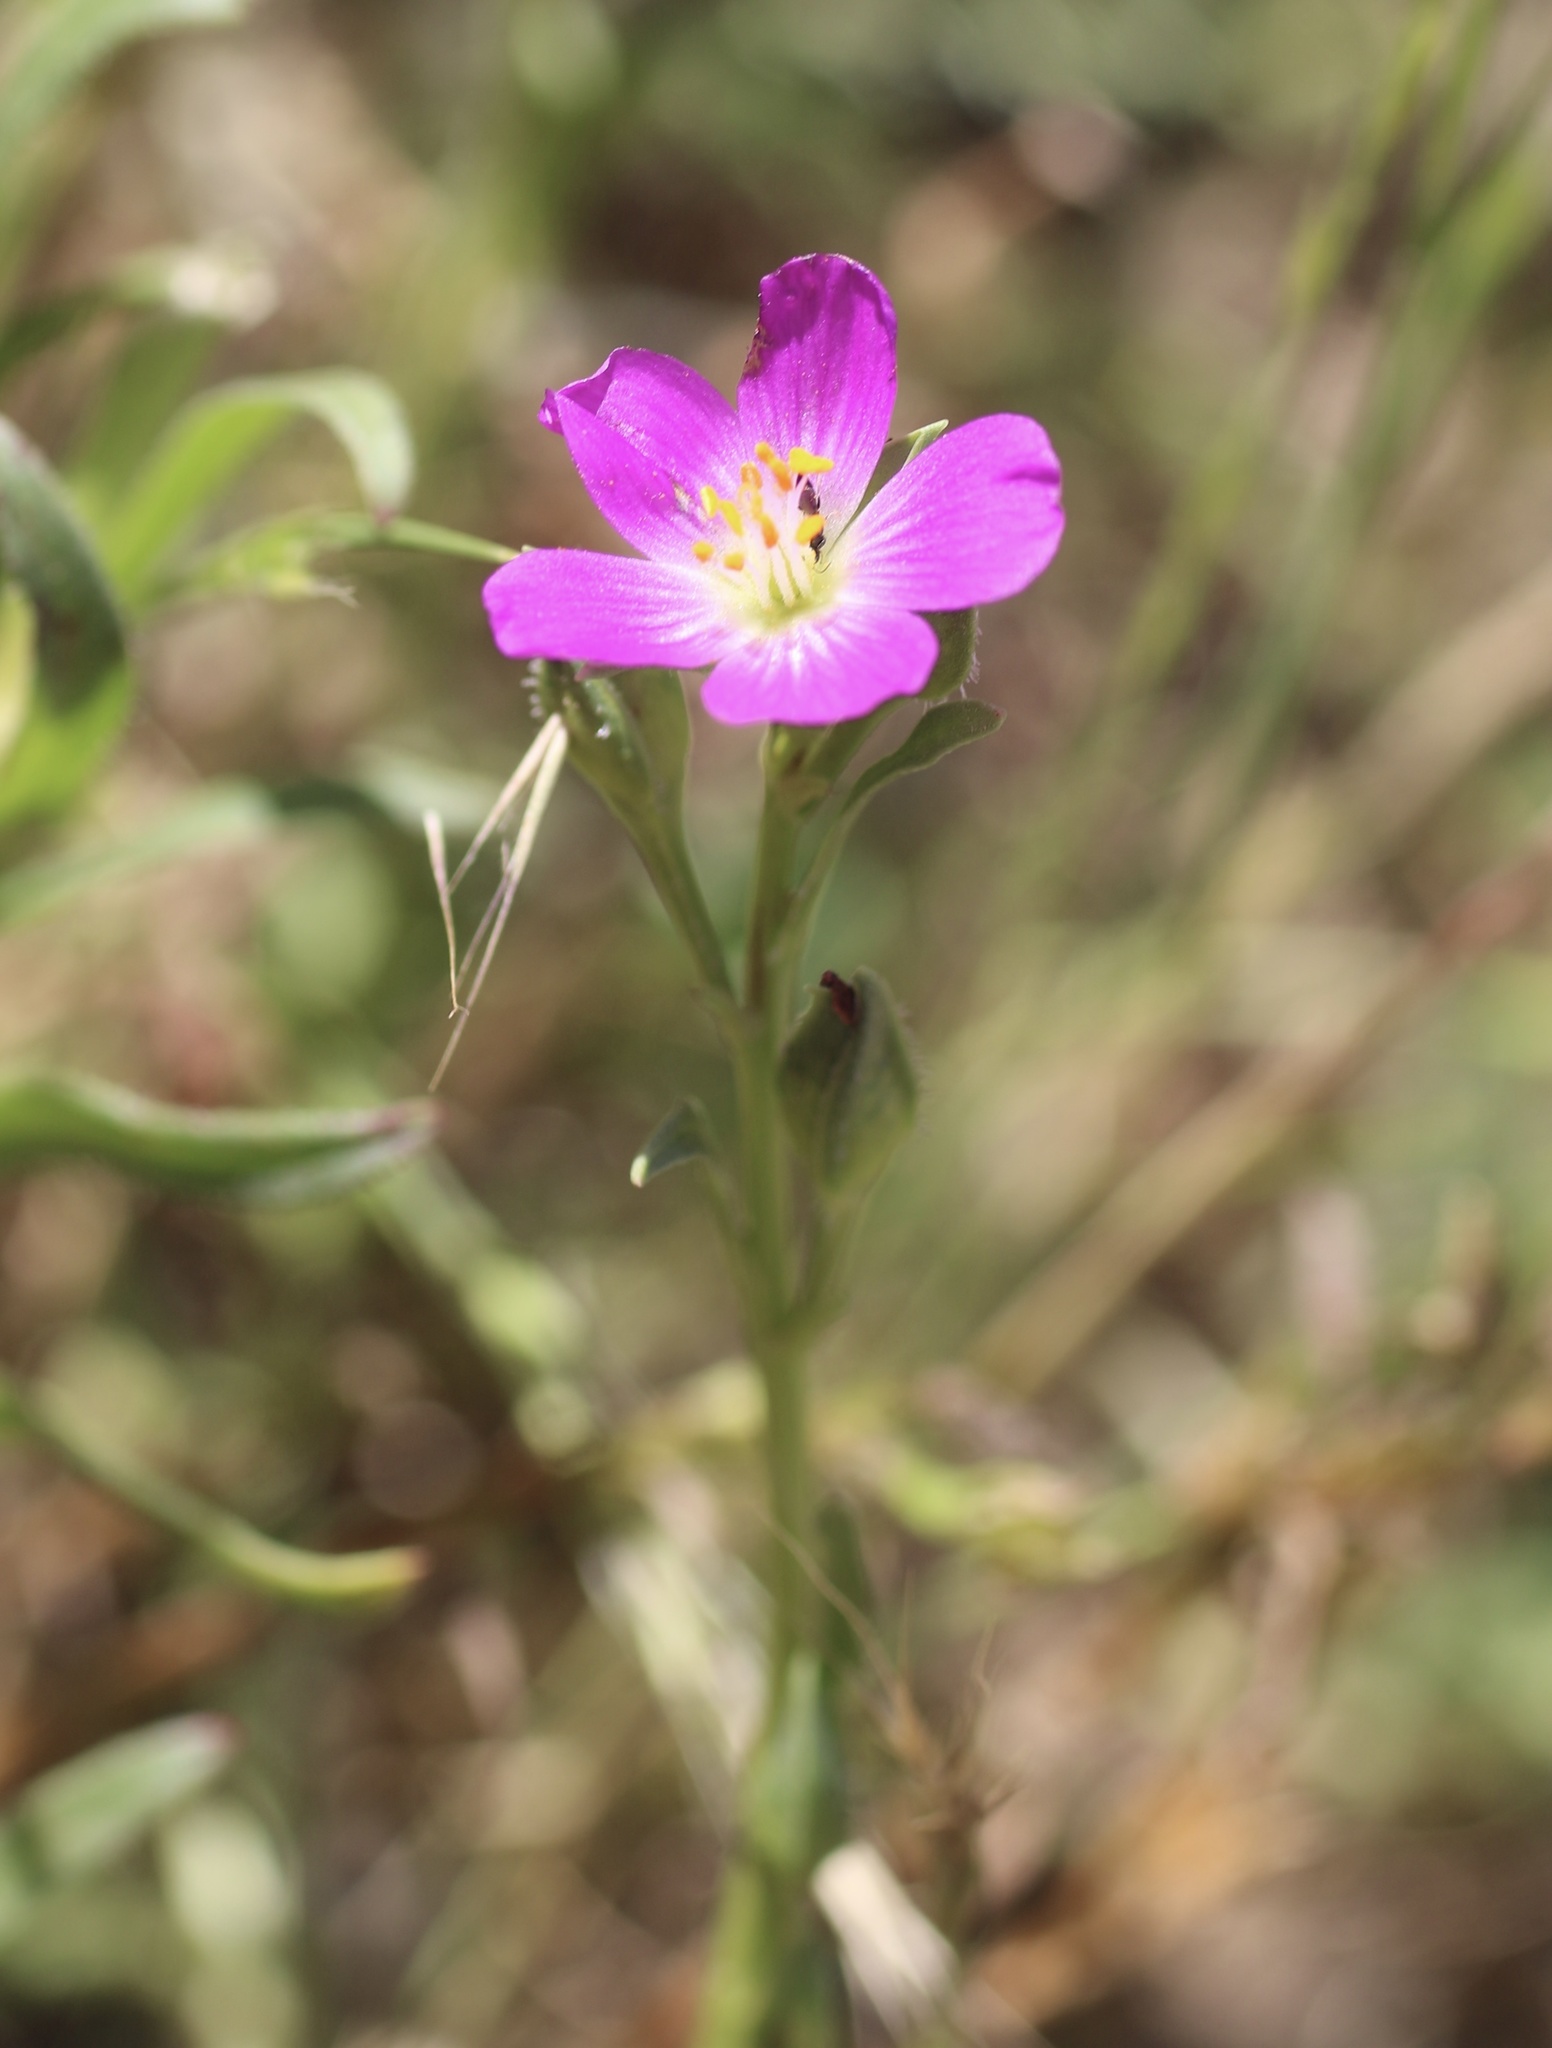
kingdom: Plantae
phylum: Tracheophyta
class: Magnoliopsida
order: Caryophyllales
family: Montiaceae
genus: Calandrinia
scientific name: Calandrinia menziesii
